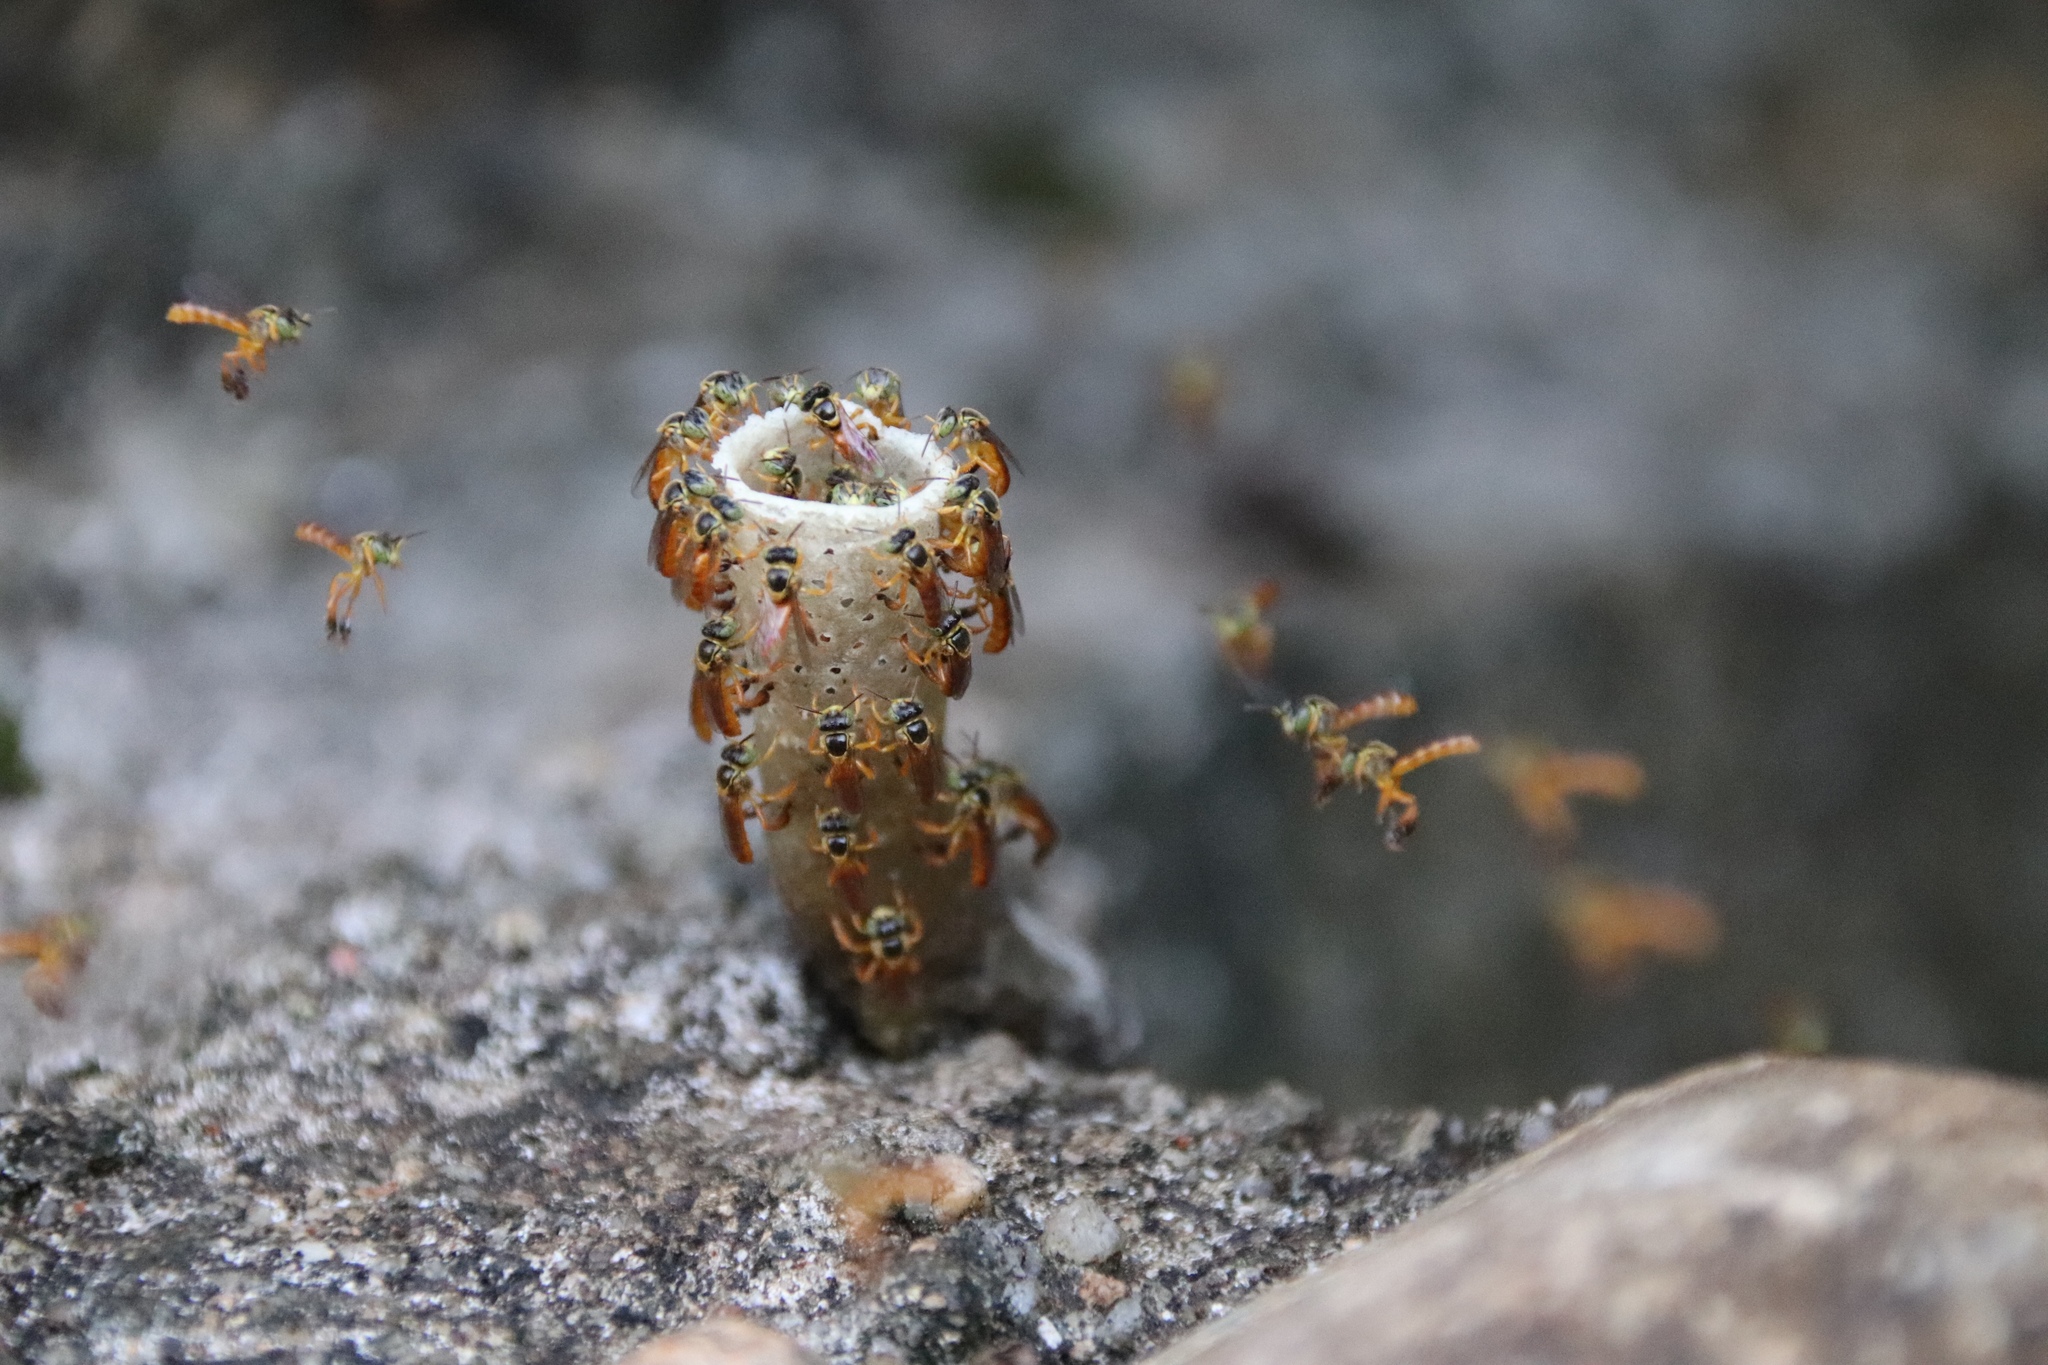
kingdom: Animalia
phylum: Arthropoda
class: Insecta
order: Hymenoptera
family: Apidae
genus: Tetragonisca
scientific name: Tetragonisca angustula
